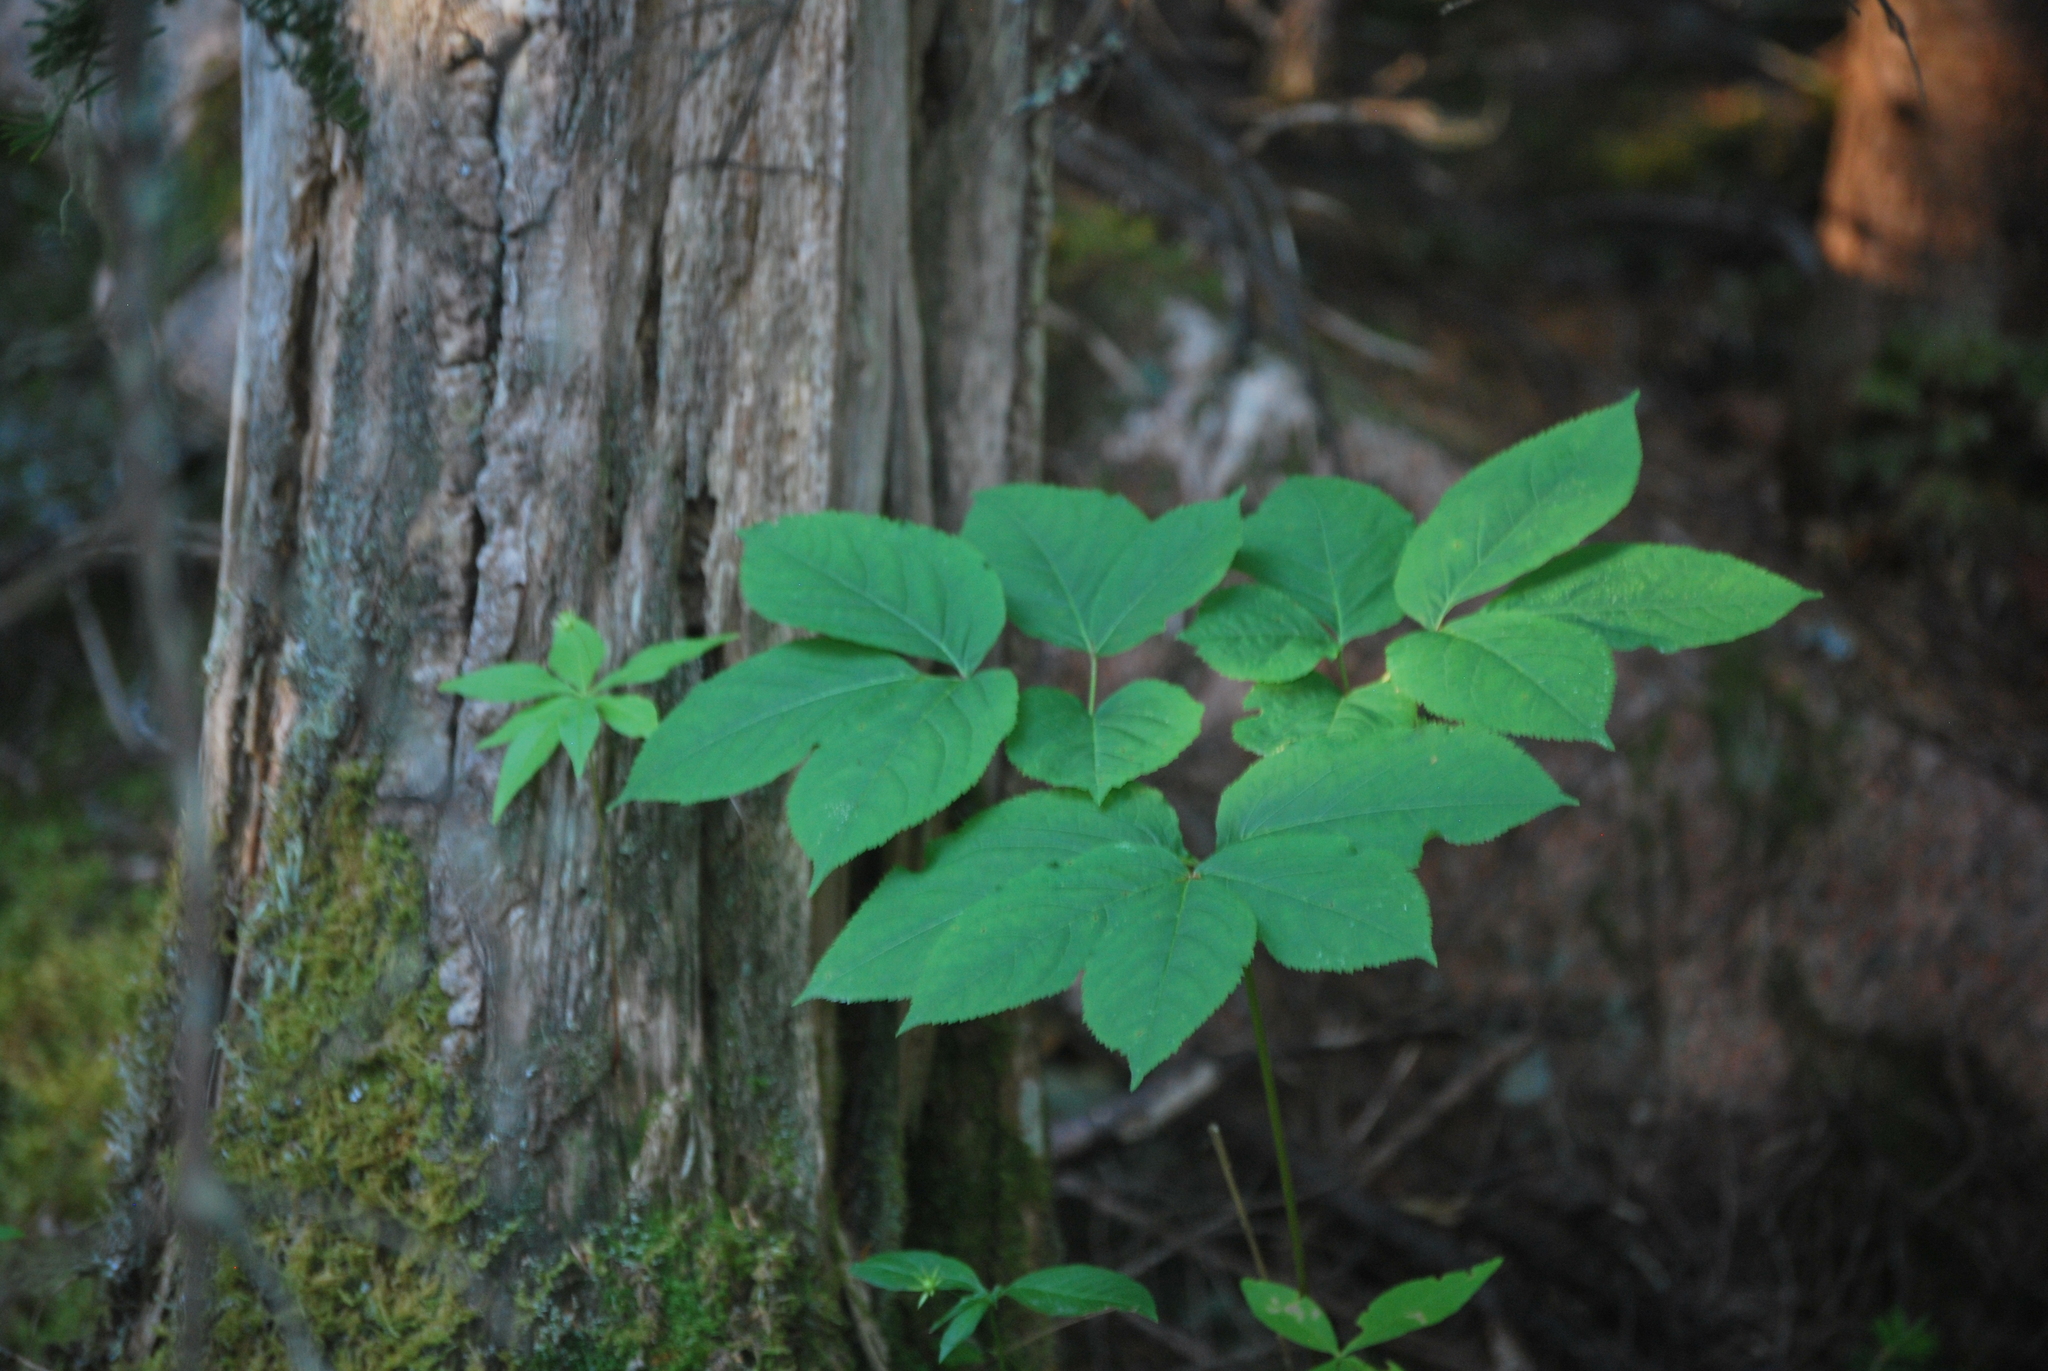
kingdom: Plantae
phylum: Tracheophyta
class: Magnoliopsida
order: Apiales
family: Araliaceae
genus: Aralia
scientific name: Aralia nudicaulis
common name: Wild sarsaparilla
